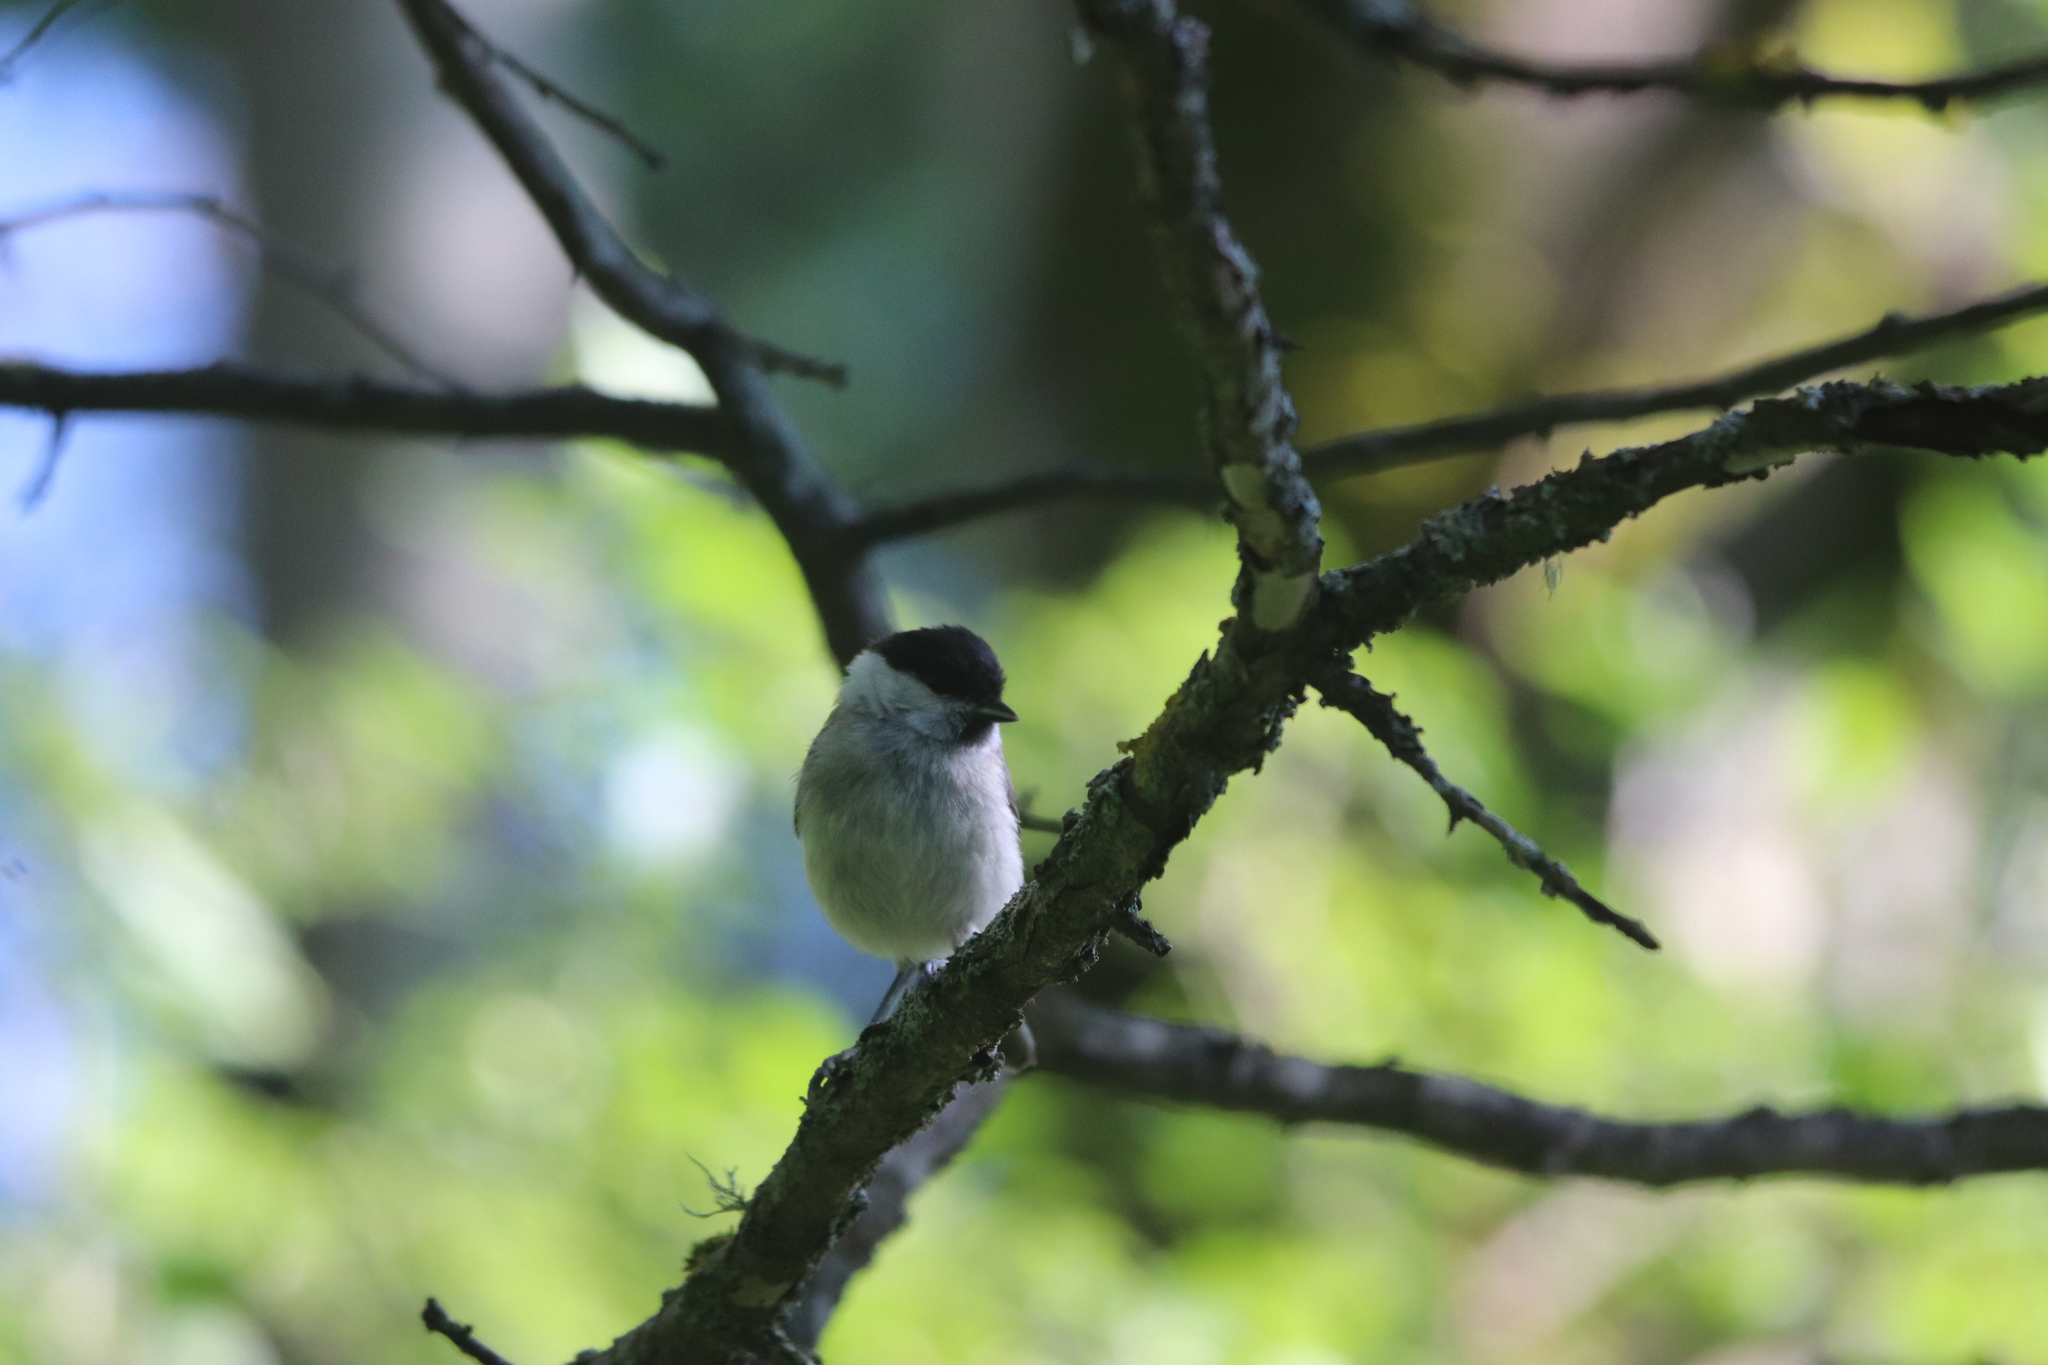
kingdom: Animalia
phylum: Chordata
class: Aves
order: Passeriformes
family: Paridae
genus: Poecile
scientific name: Poecile palustris
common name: Marsh tit
